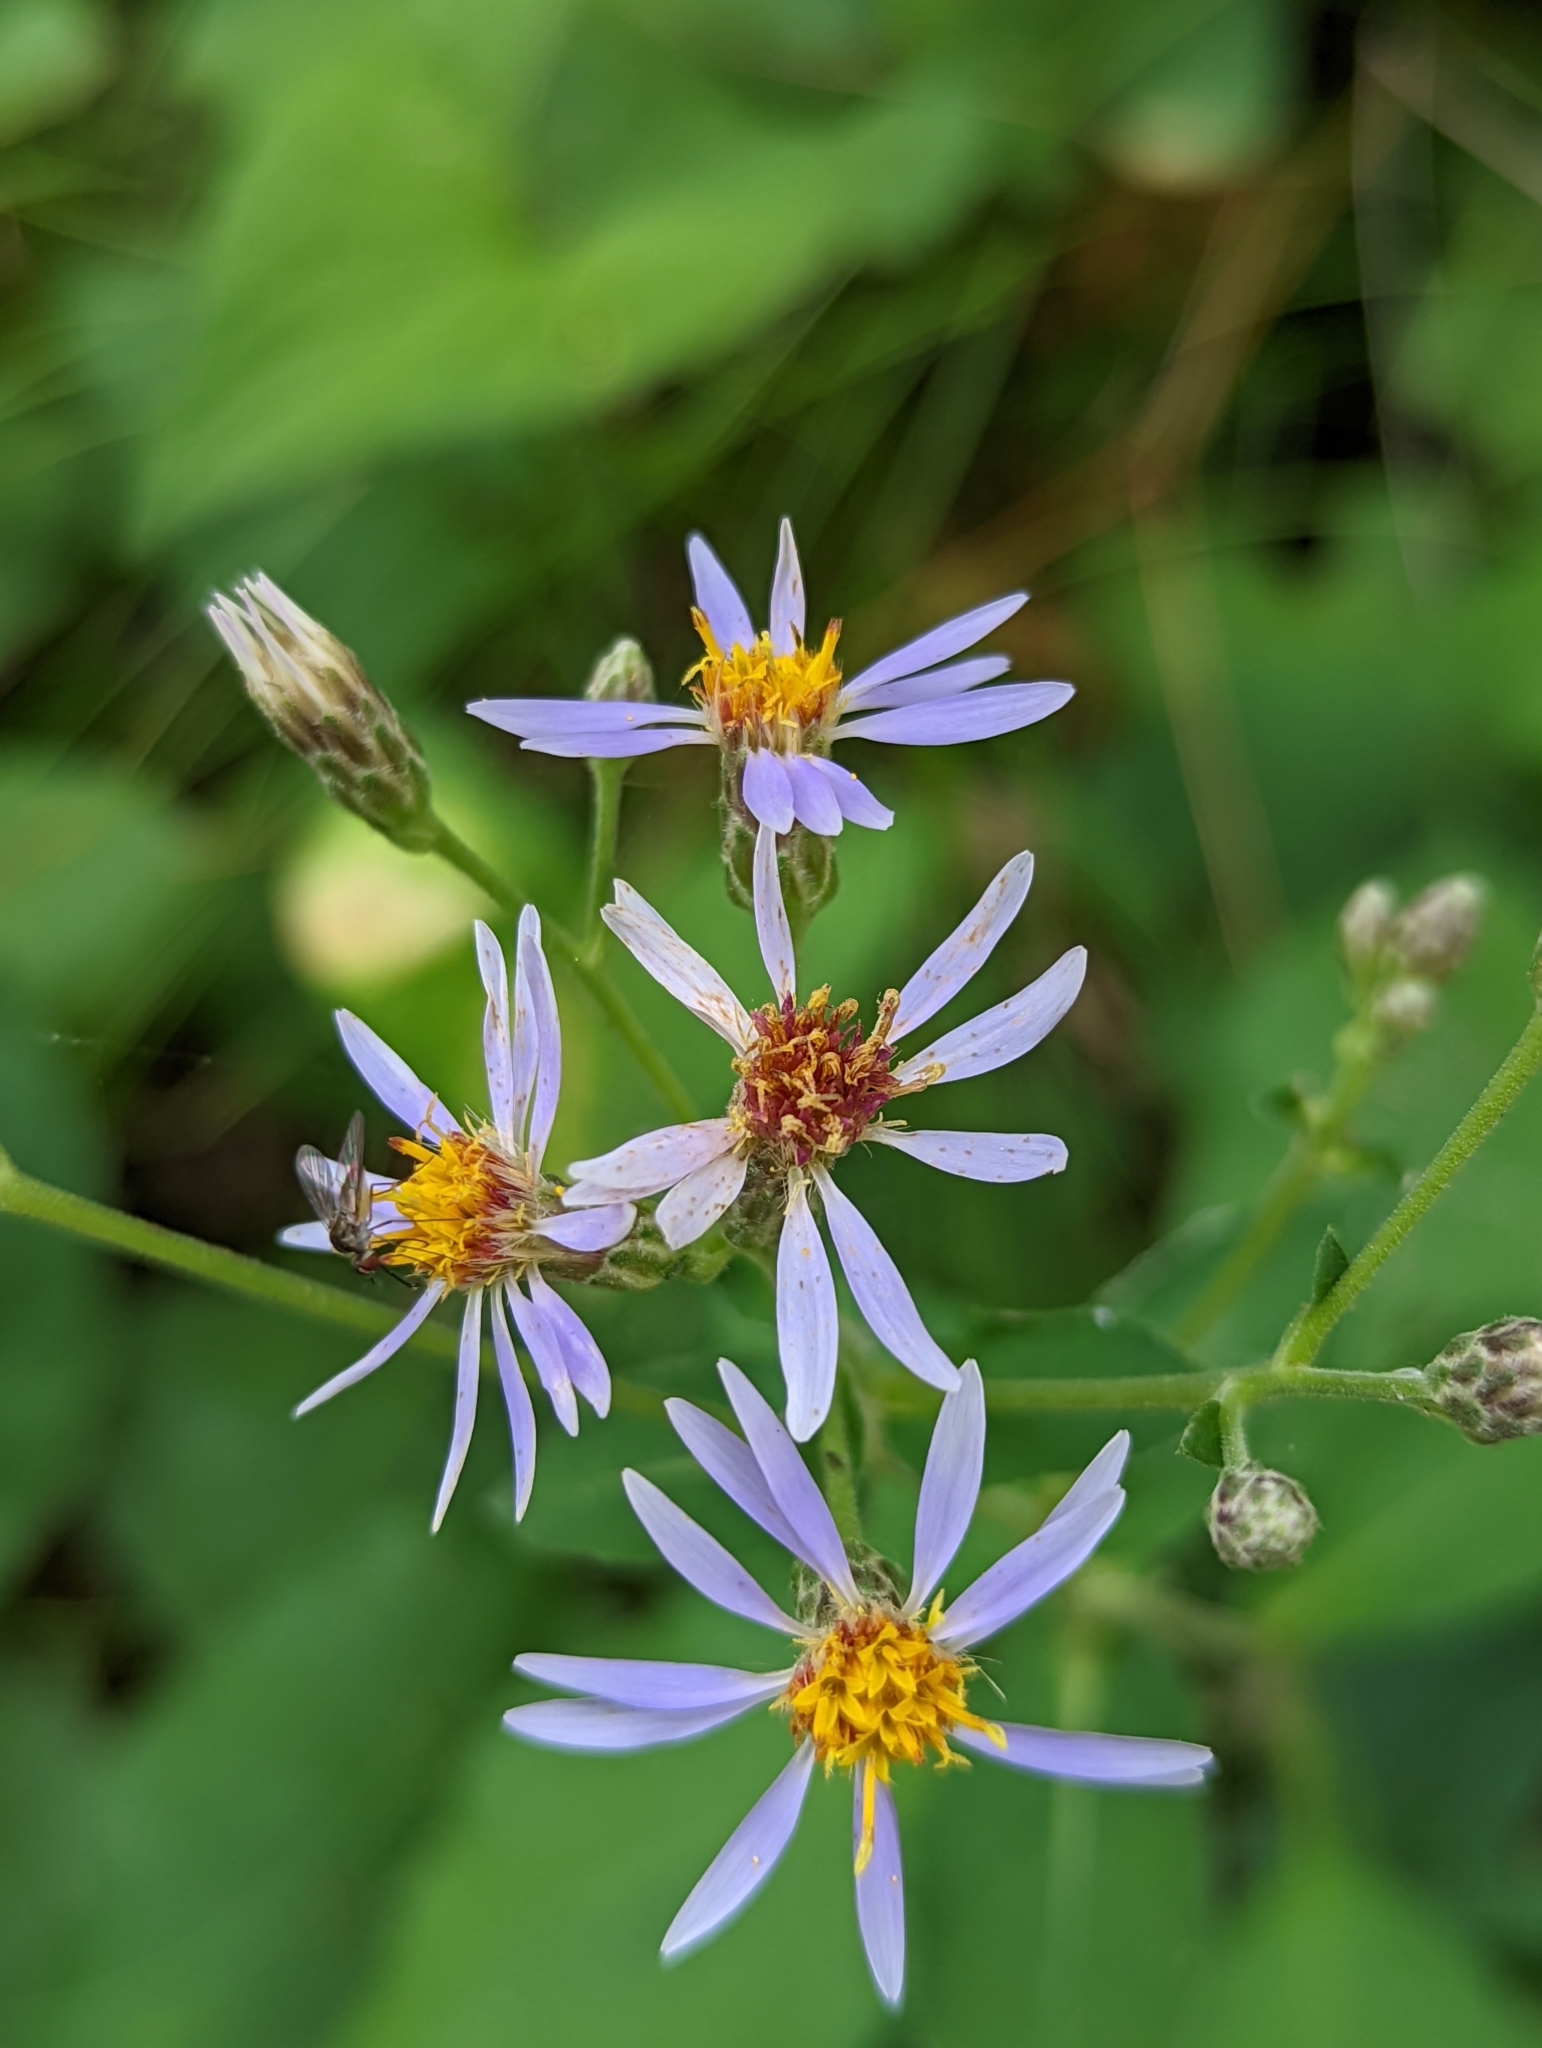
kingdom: Plantae
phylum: Tracheophyta
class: Magnoliopsida
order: Asterales
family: Asteraceae
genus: Eurybia
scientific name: Eurybia macrophylla
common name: Big-leaved aster
